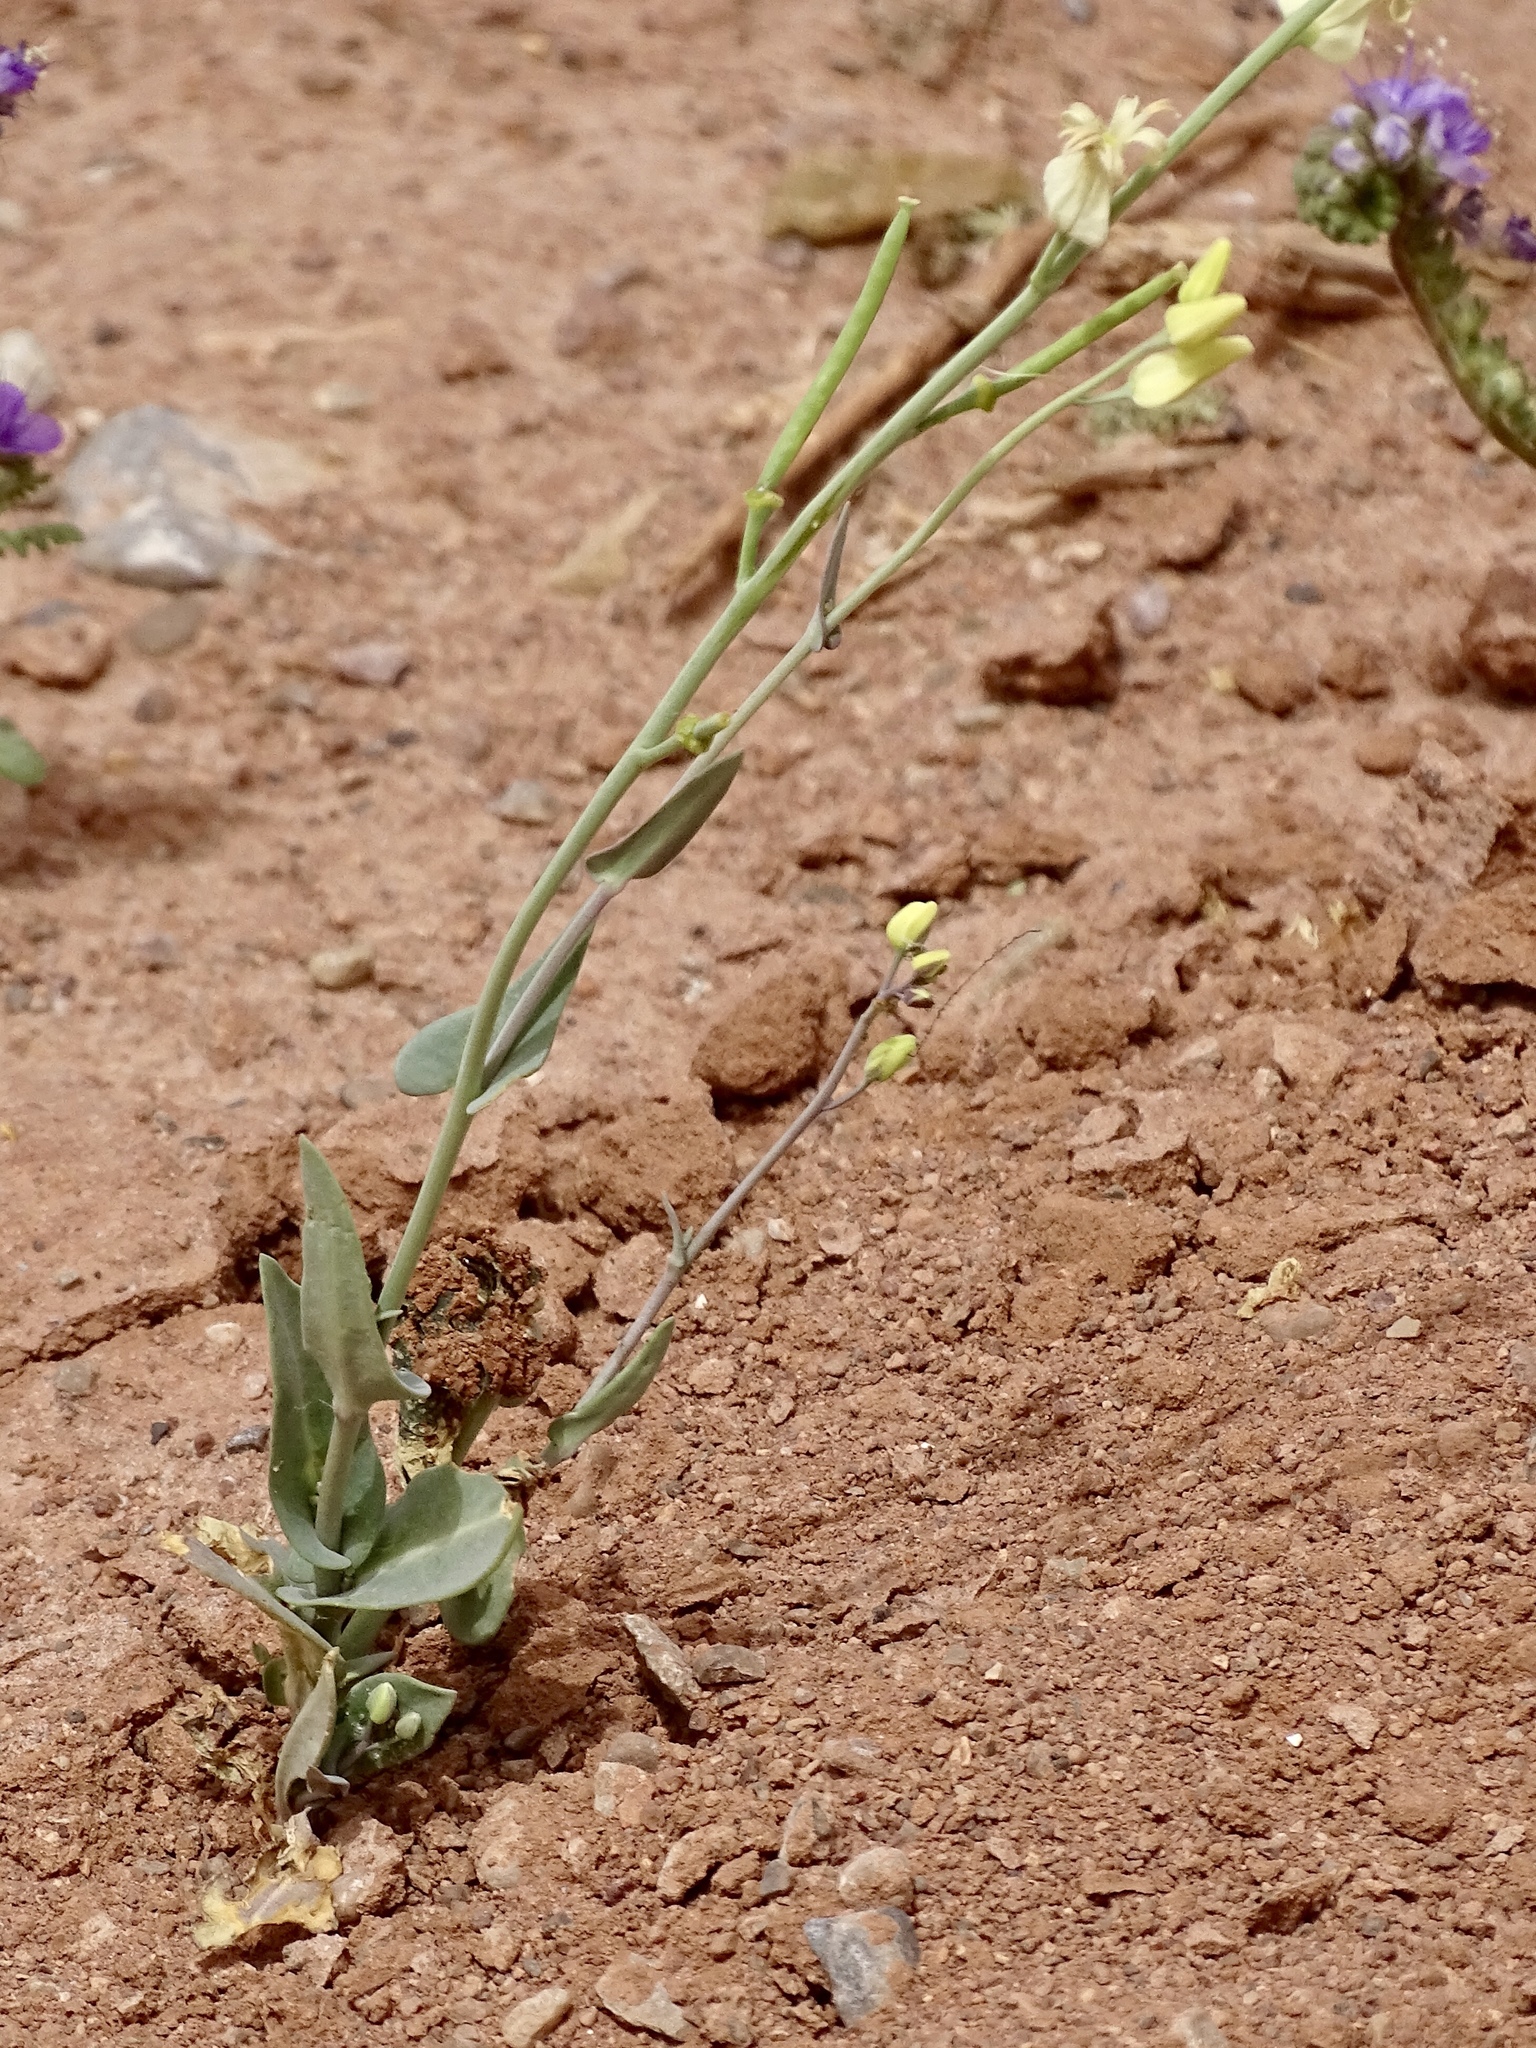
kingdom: Plantae
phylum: Tracheophyta
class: Magnoliopsida
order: Brassicales
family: Brassicaceae
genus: Streptanthus
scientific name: Streptanthus carinatus
